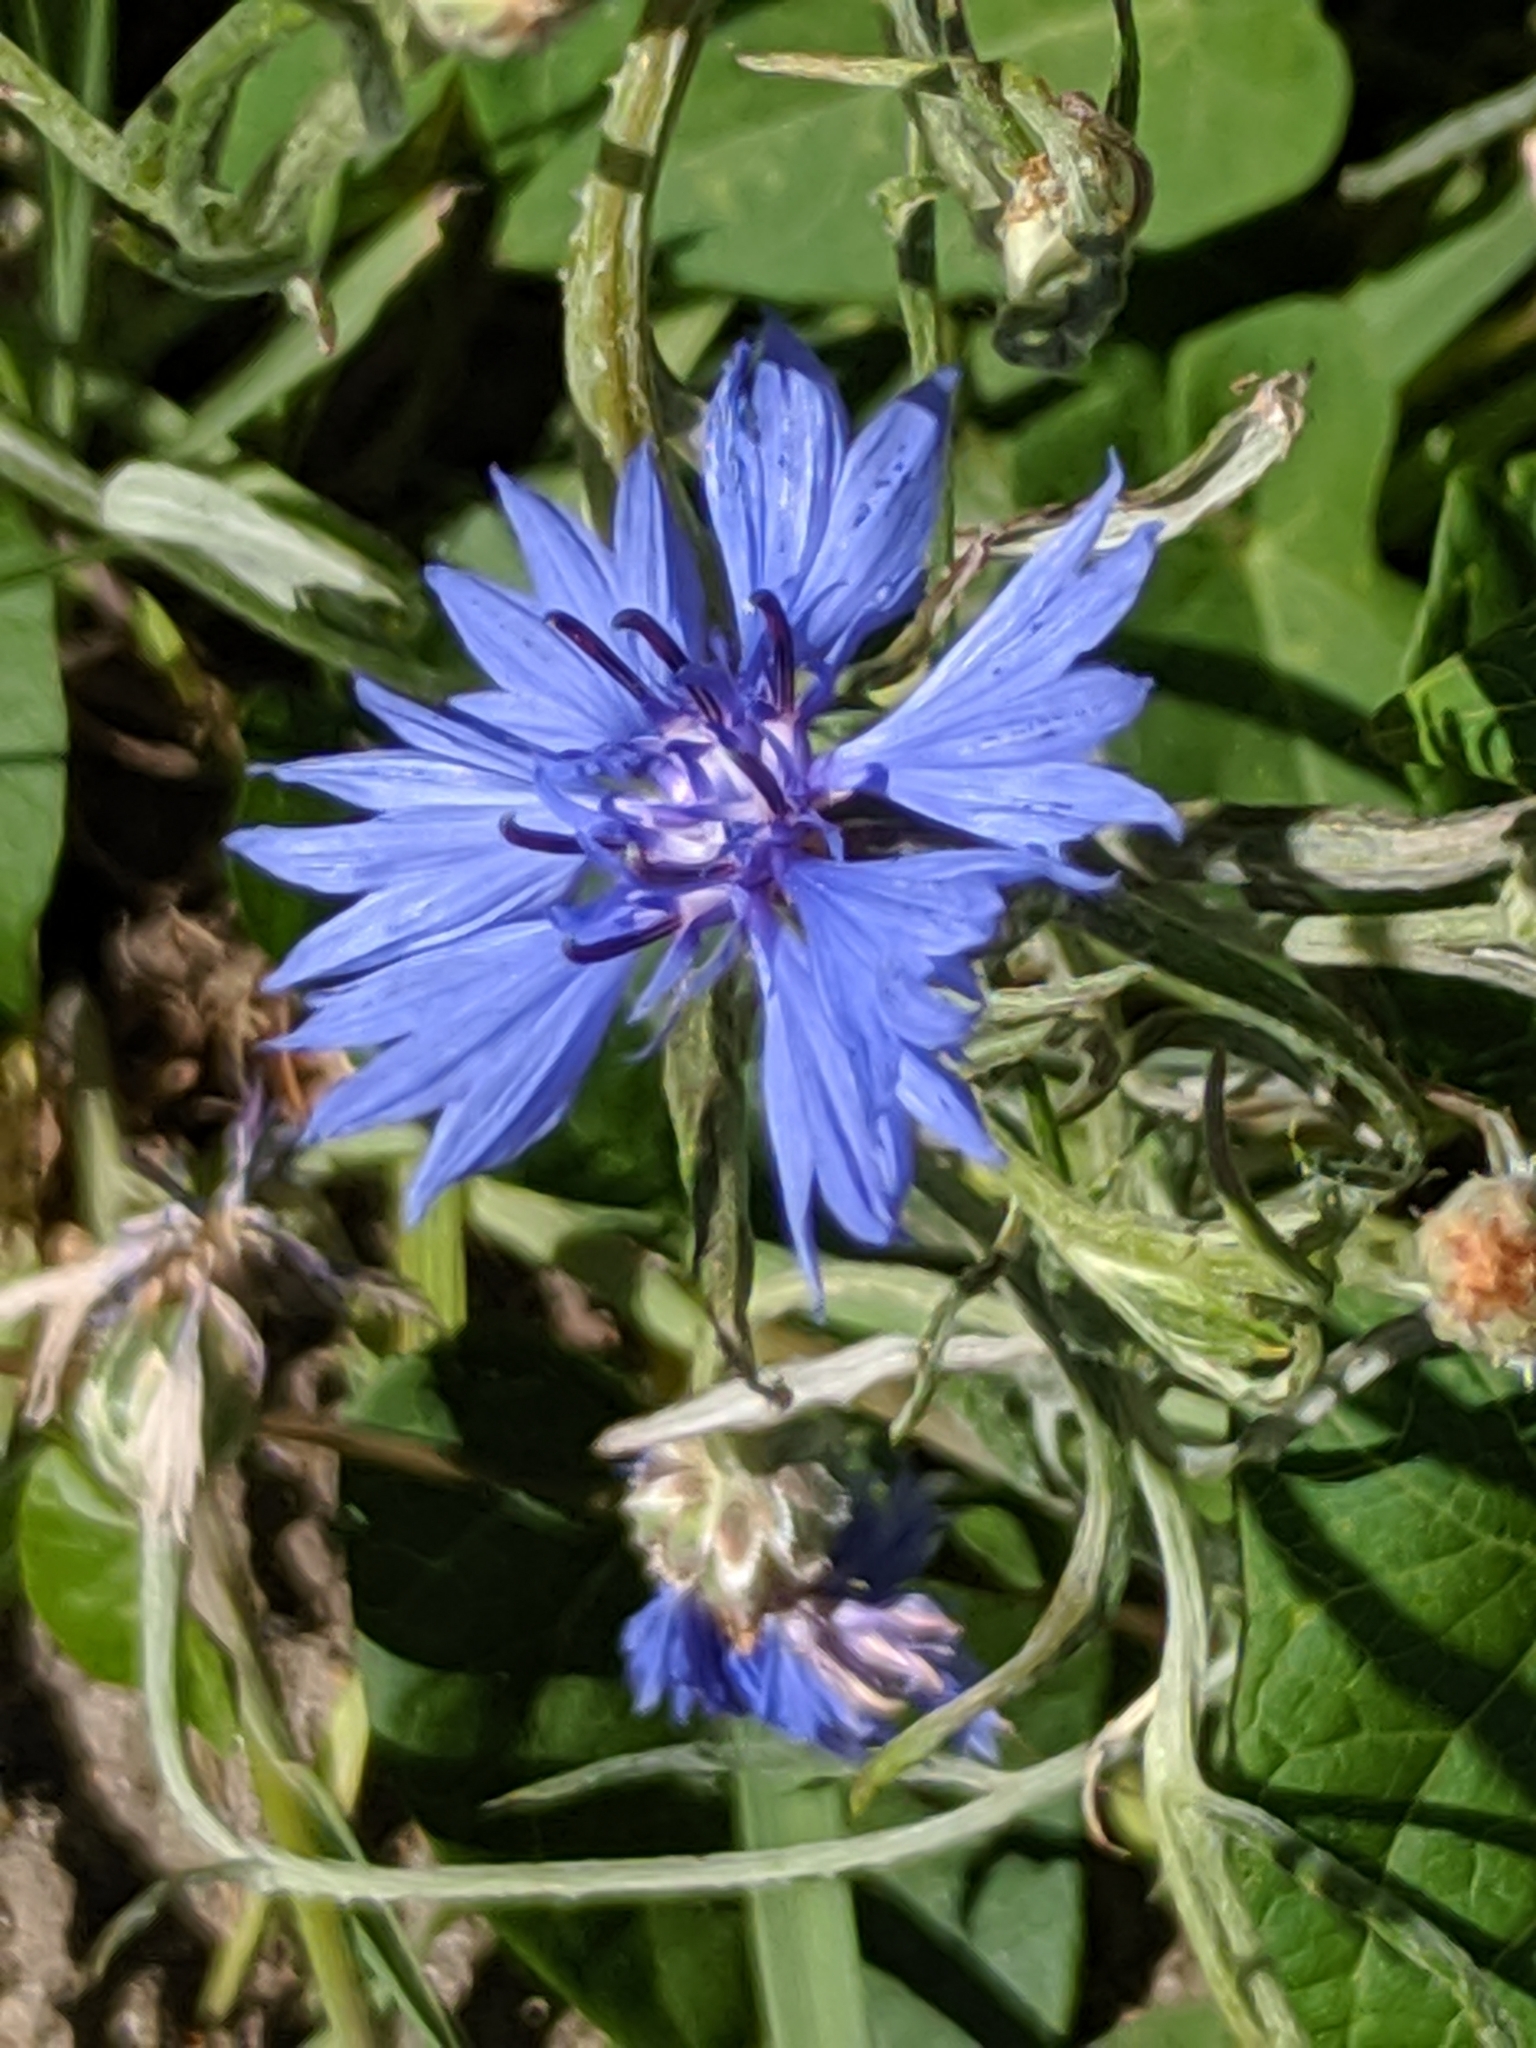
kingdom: Plantae
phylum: Tracheophyta
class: Magnoliopsida
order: Asterales
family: Asteraceae
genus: Centaurea
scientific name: Centaurea cyanus
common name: Cornflower
